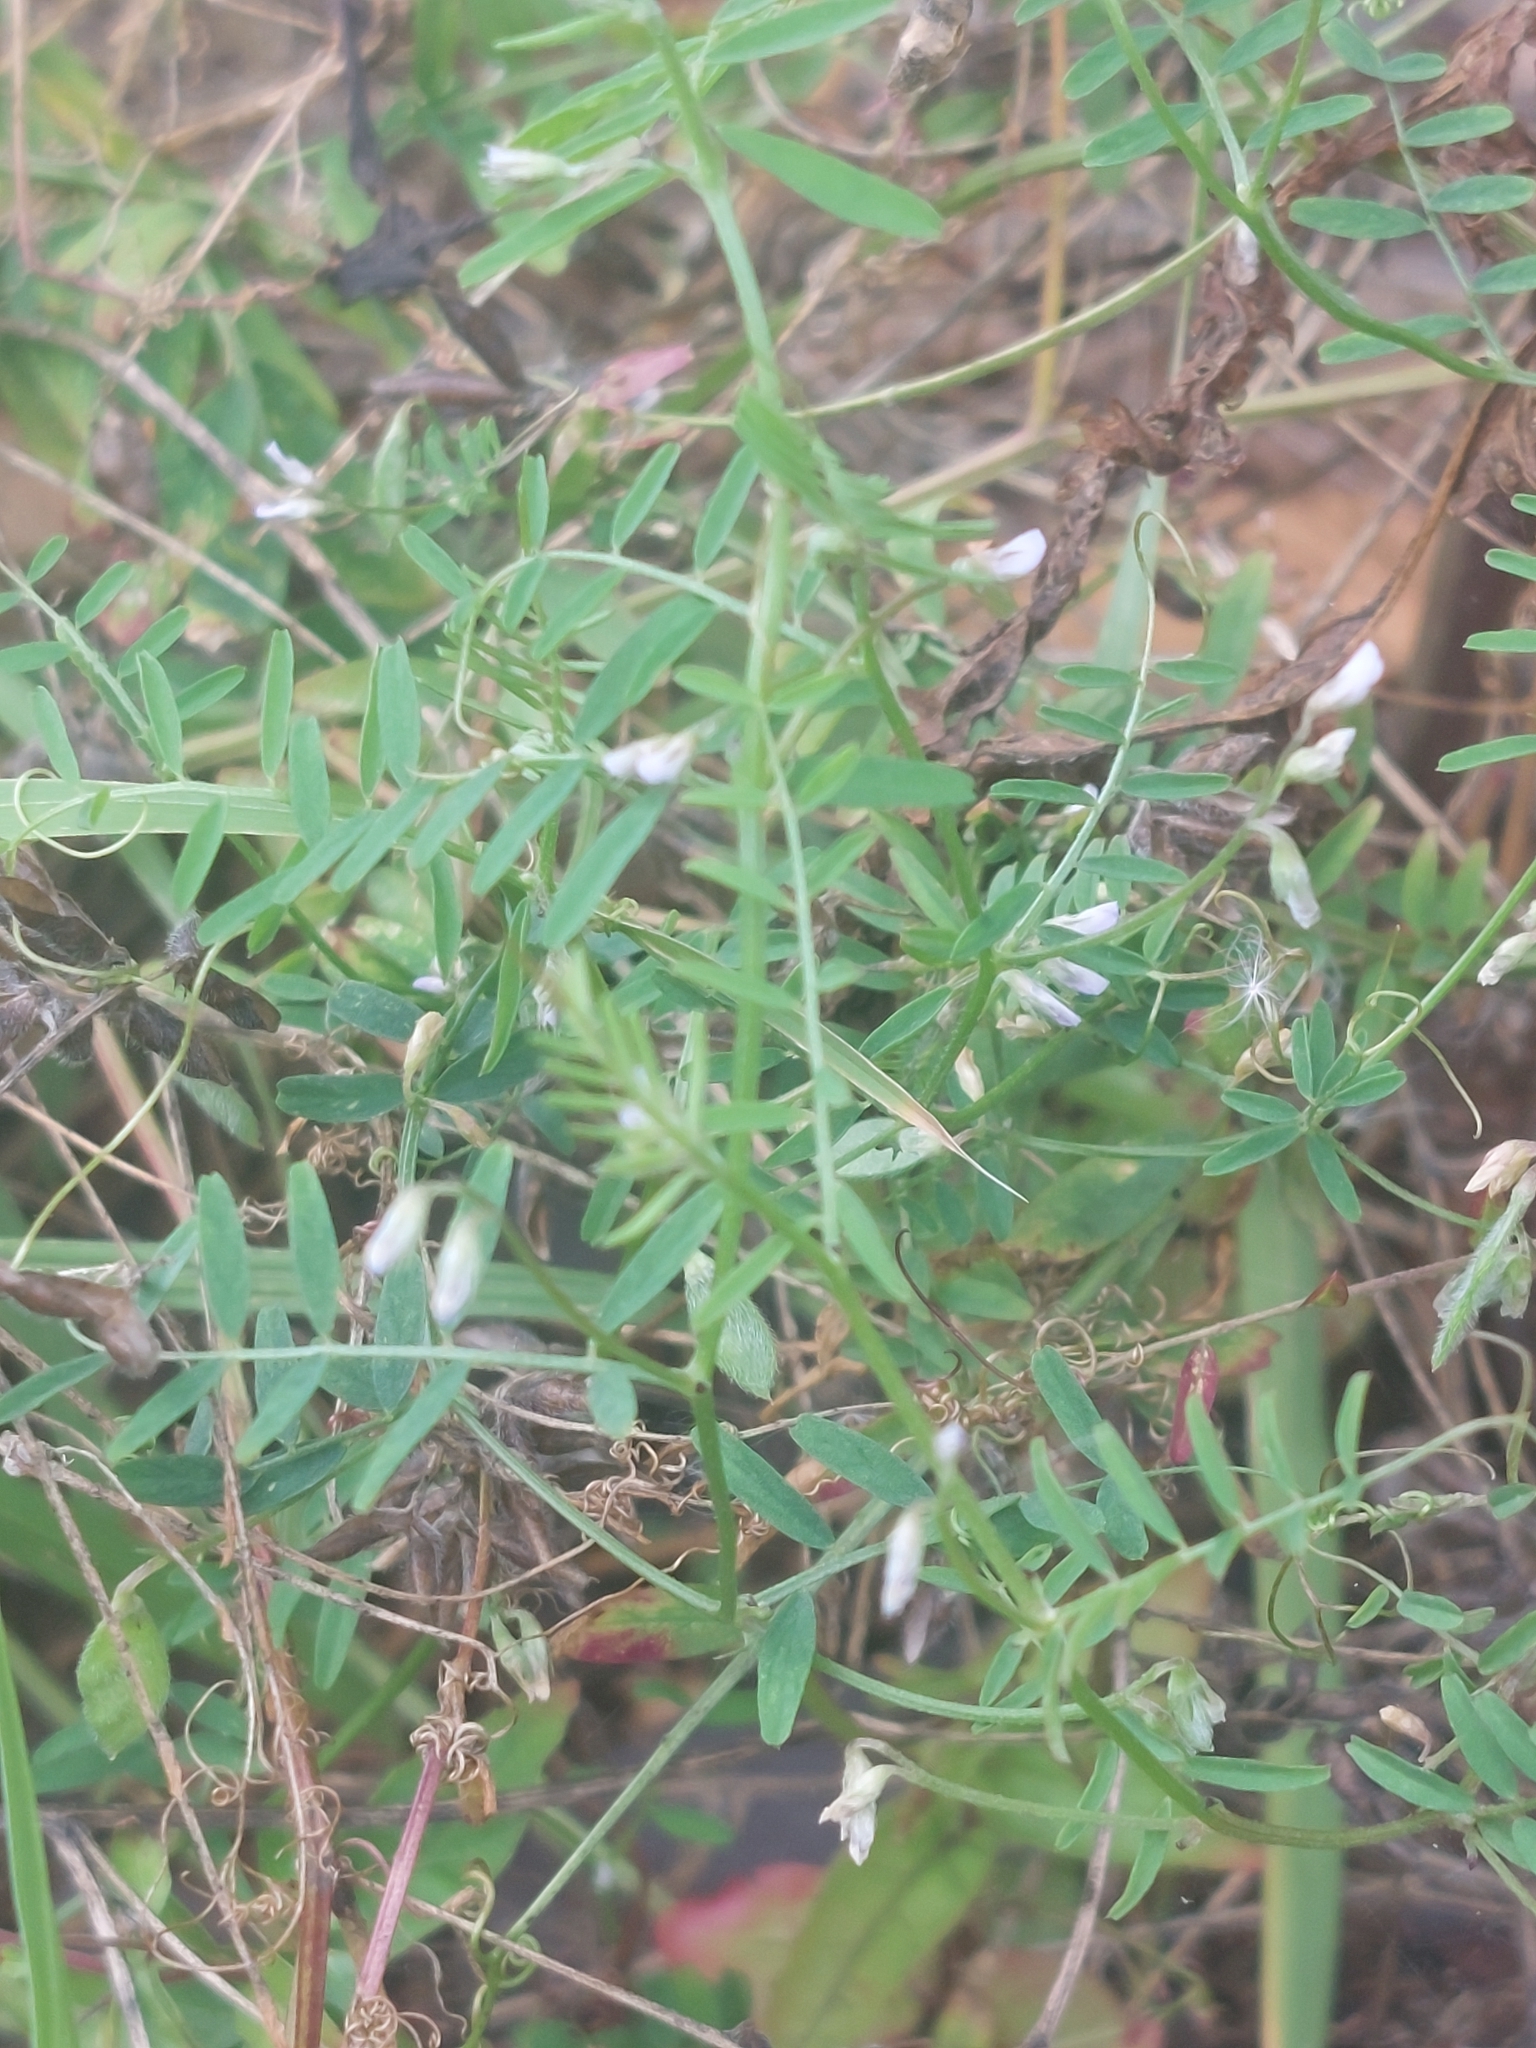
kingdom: Plantae
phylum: Tracheophyta
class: Magnoliopsida
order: Fabales
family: Fabaceae
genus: Vicia
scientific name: Vicia hirsuta
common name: Tiny vetch
